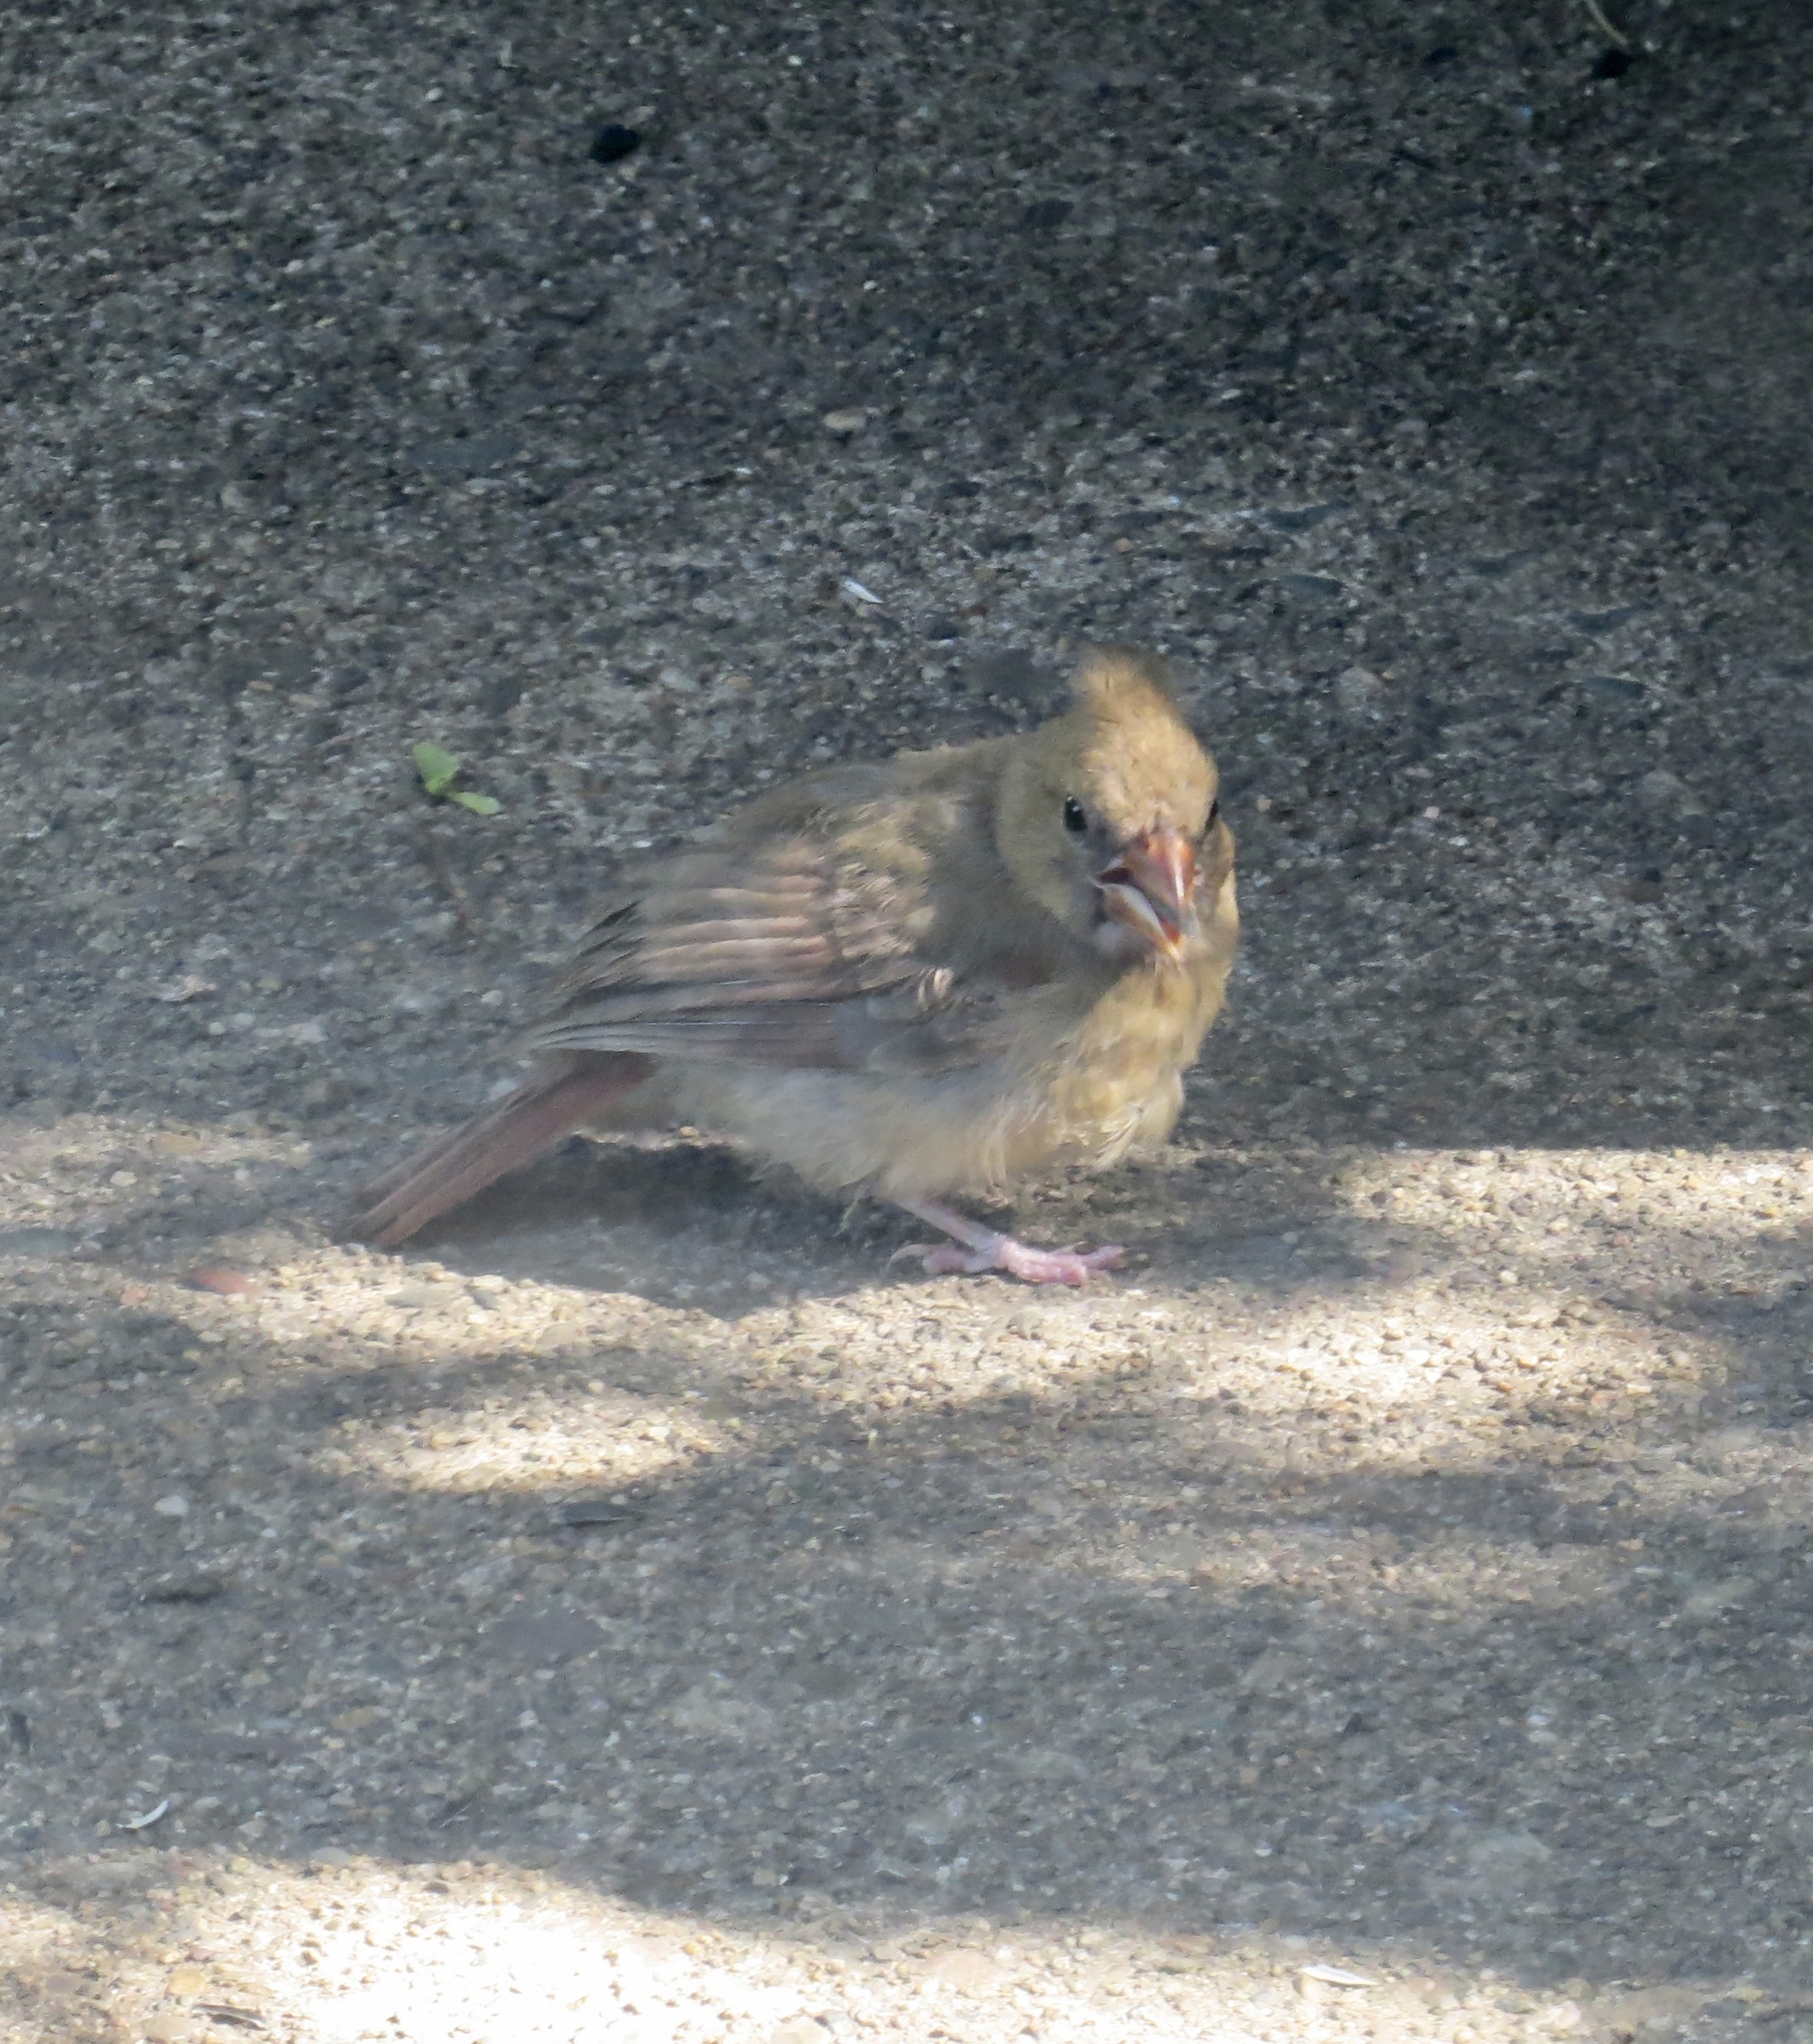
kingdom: Animalia
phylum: Chordata
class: Aves
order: Passeriformes
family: Cardinalidae
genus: Cardinalis
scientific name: Cardinalis cardinalis
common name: Northern cardinal
